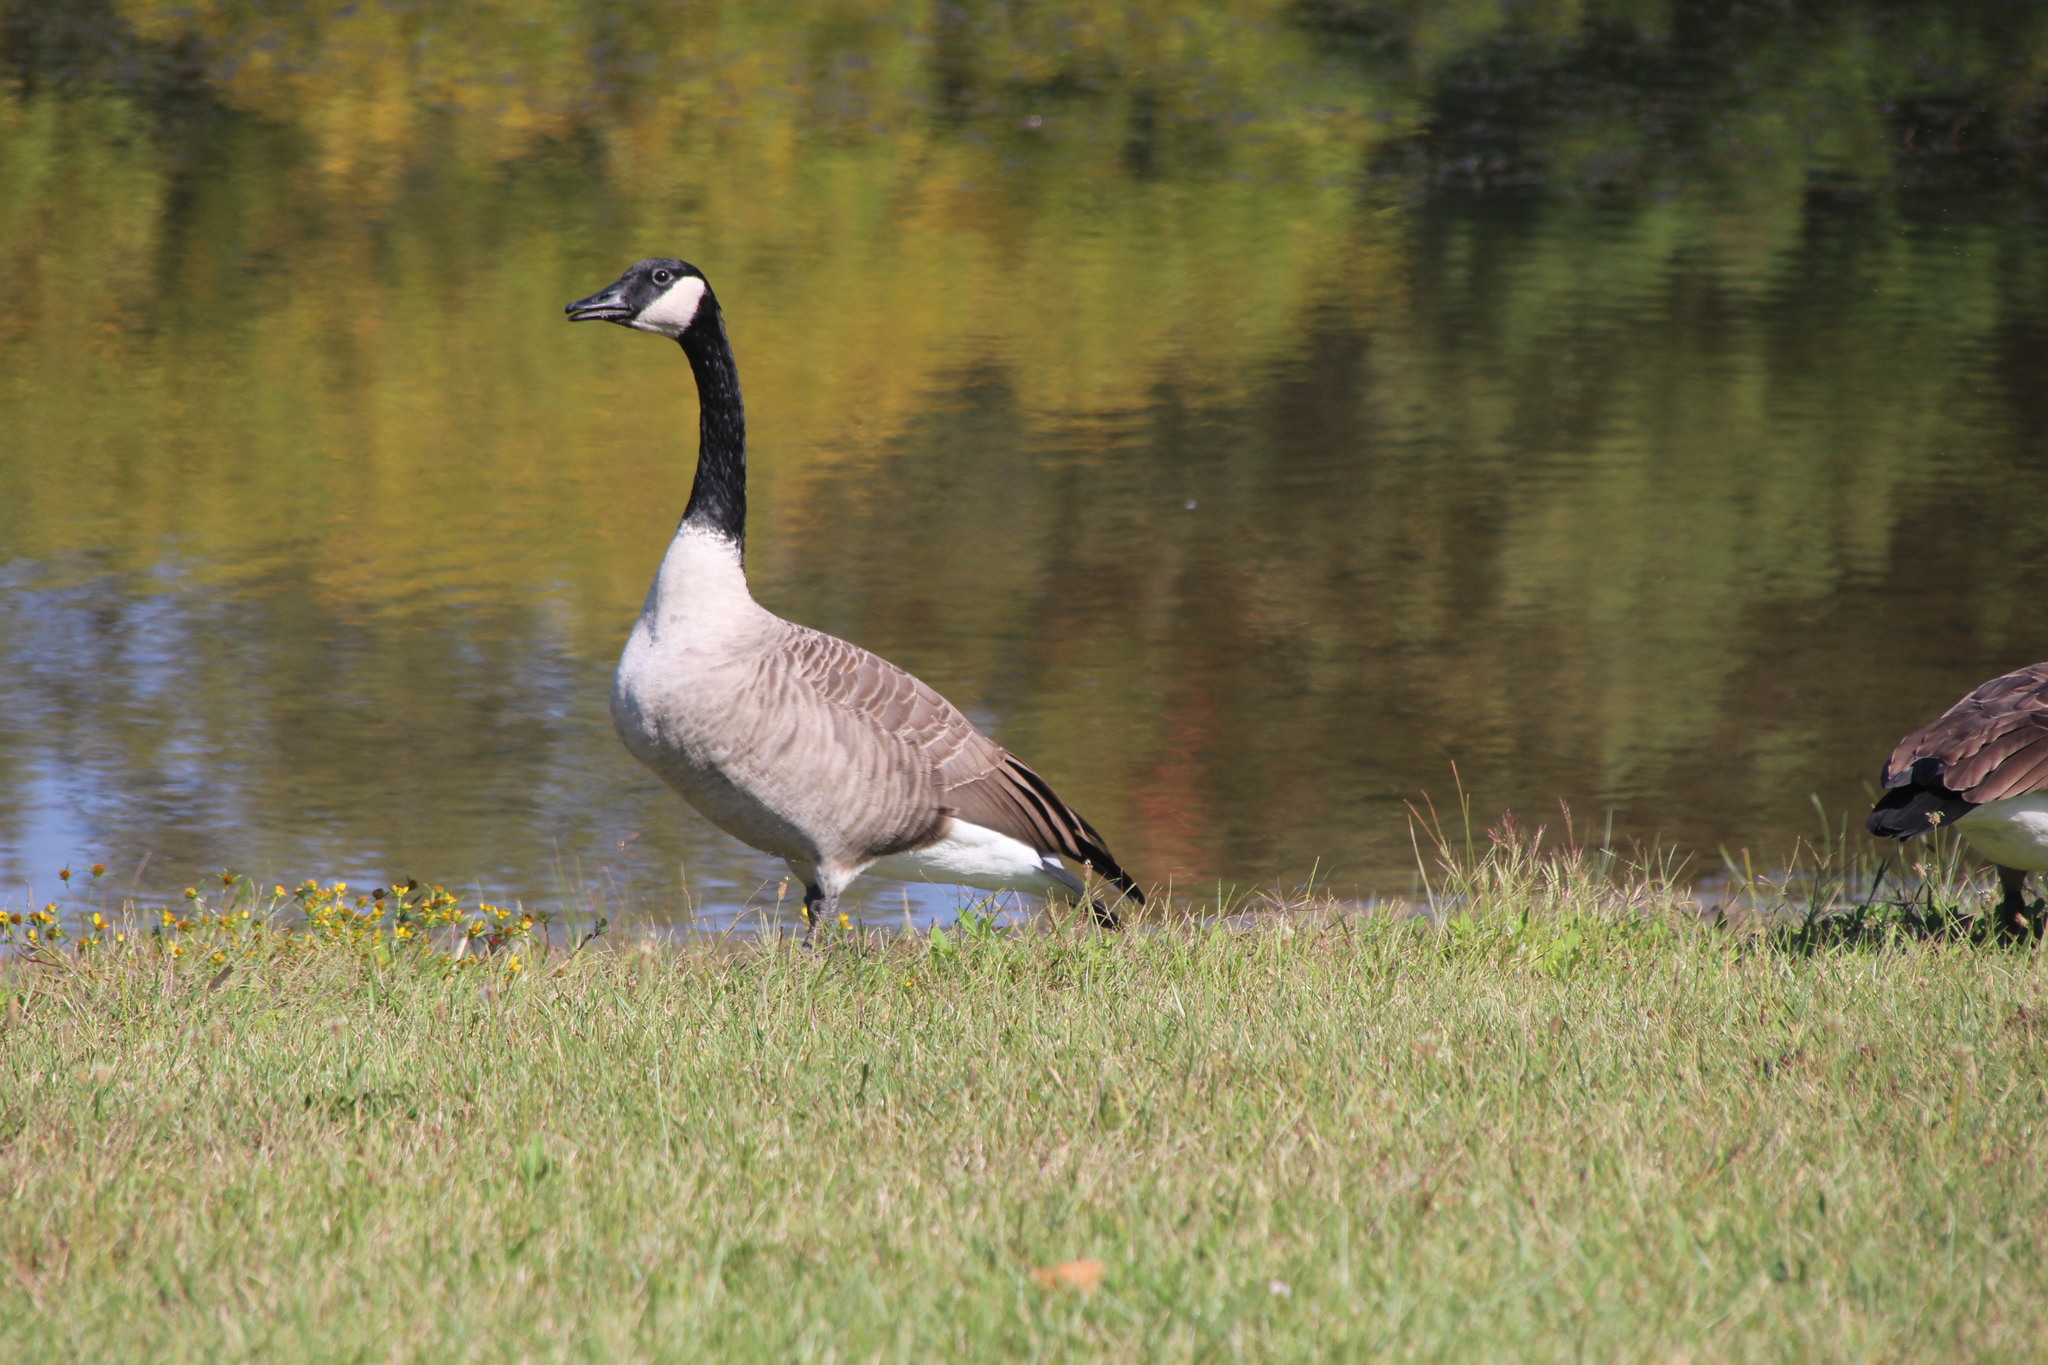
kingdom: Animalia
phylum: Chordata
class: Aves
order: Anseriformes
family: Anatidae
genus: Branta
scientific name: Branta canadensis
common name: Canada goose
